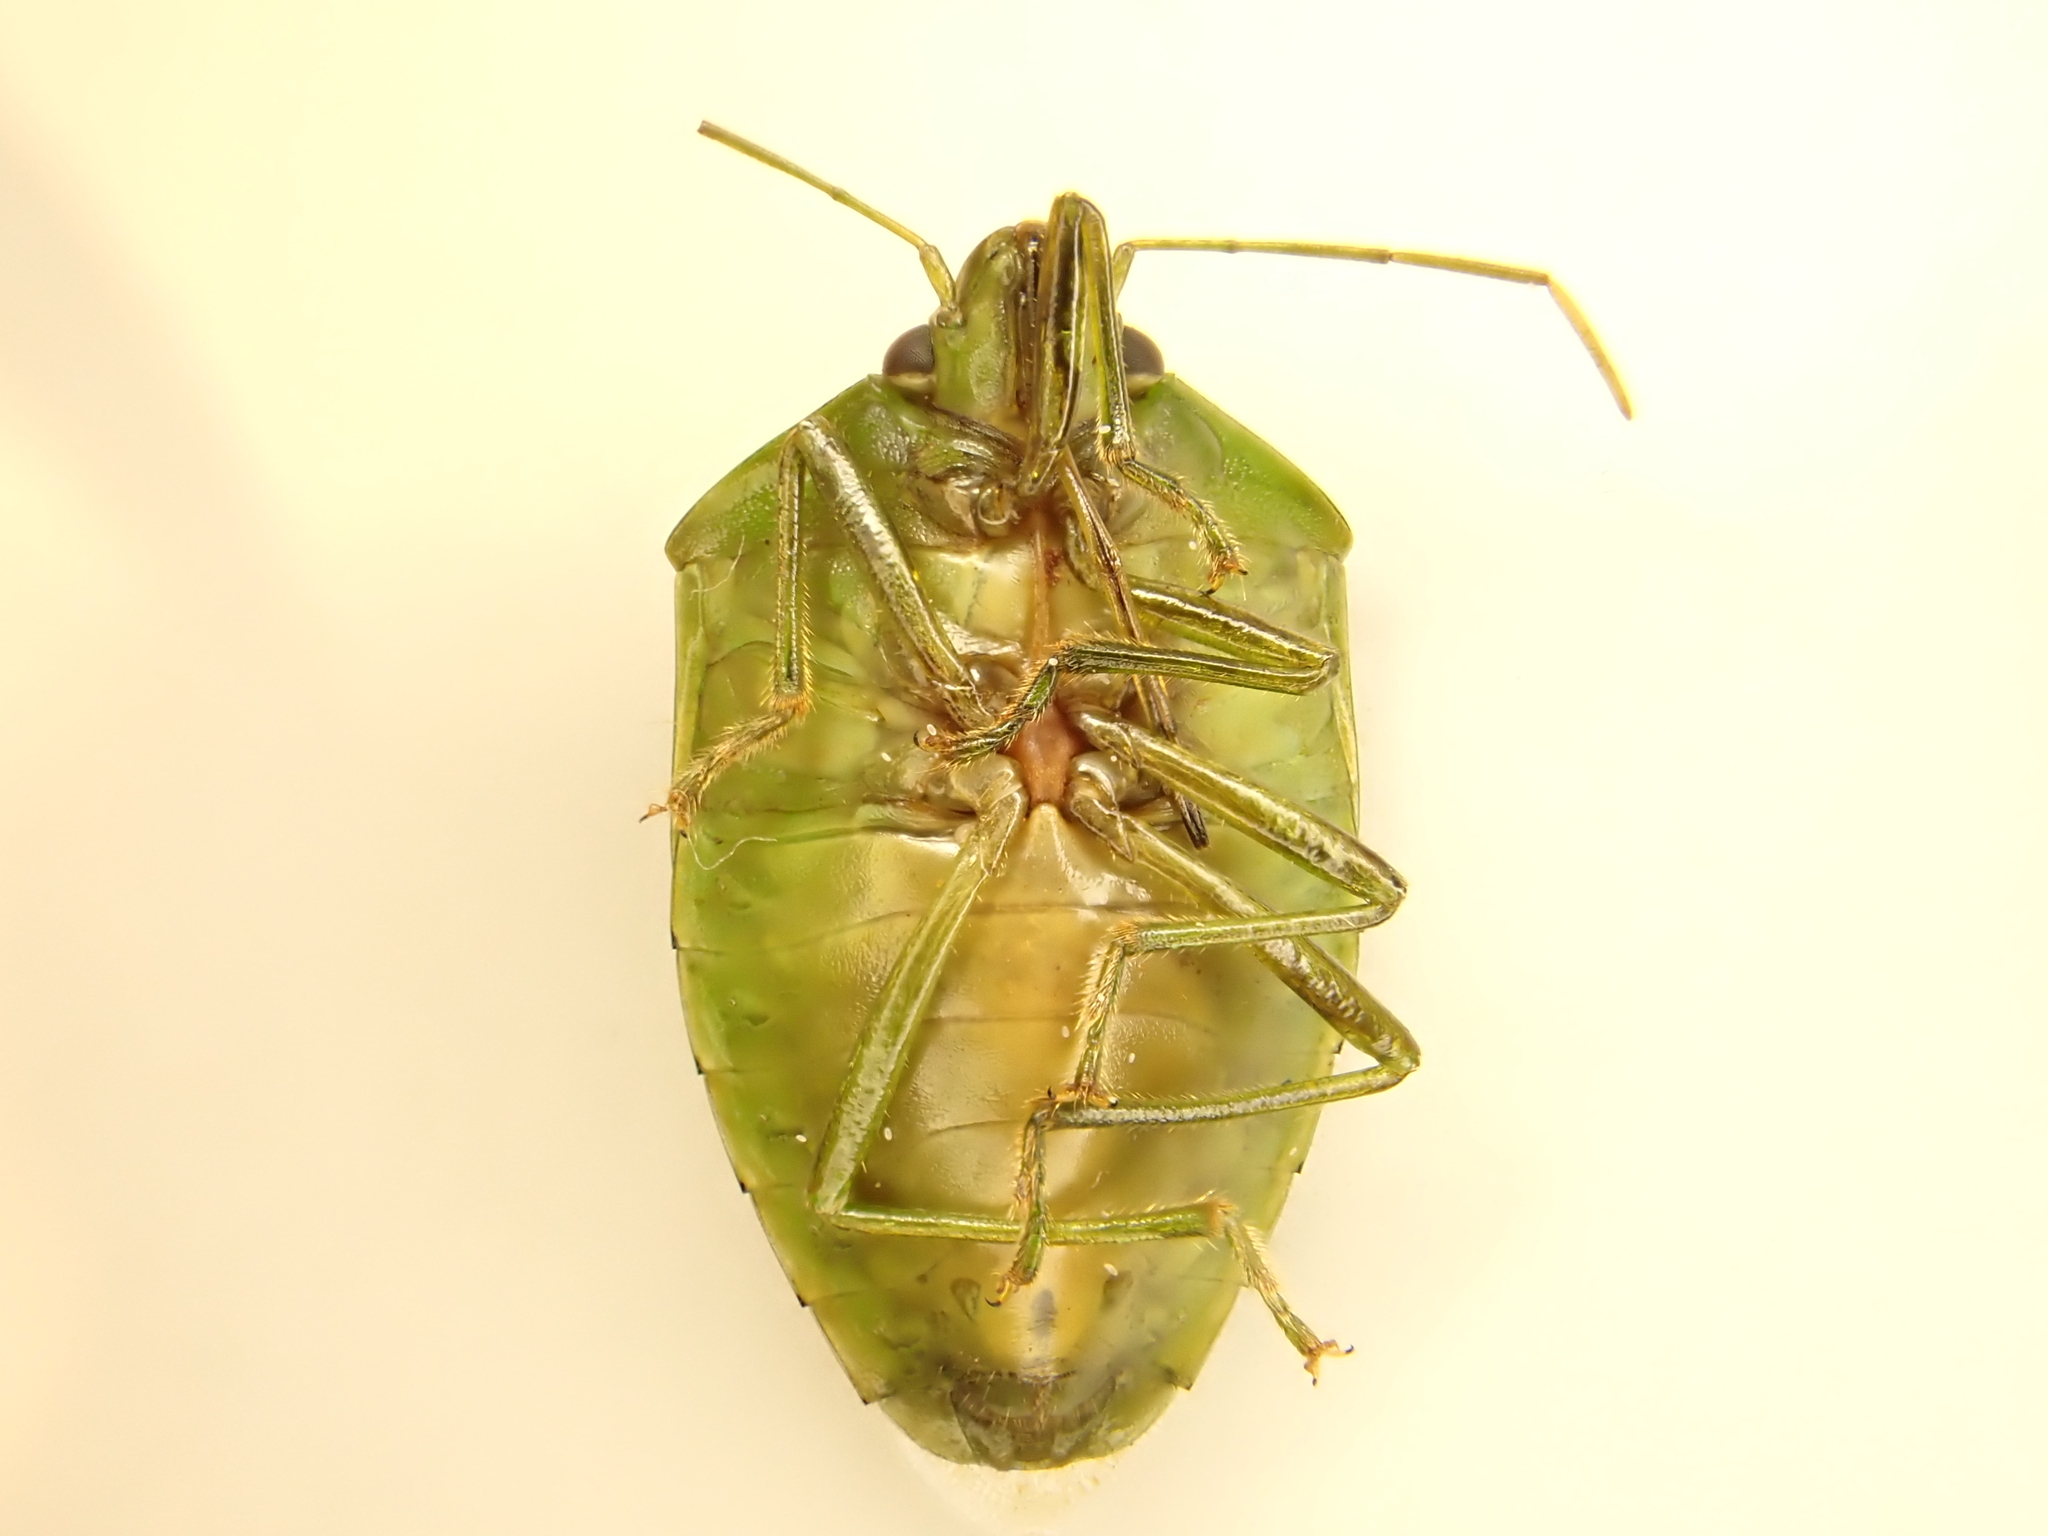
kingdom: Animalia
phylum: Arthropoda
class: Insecta
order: Hemiptera
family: Pentatomidae
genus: Glaucias
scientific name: Glaucias amyota
